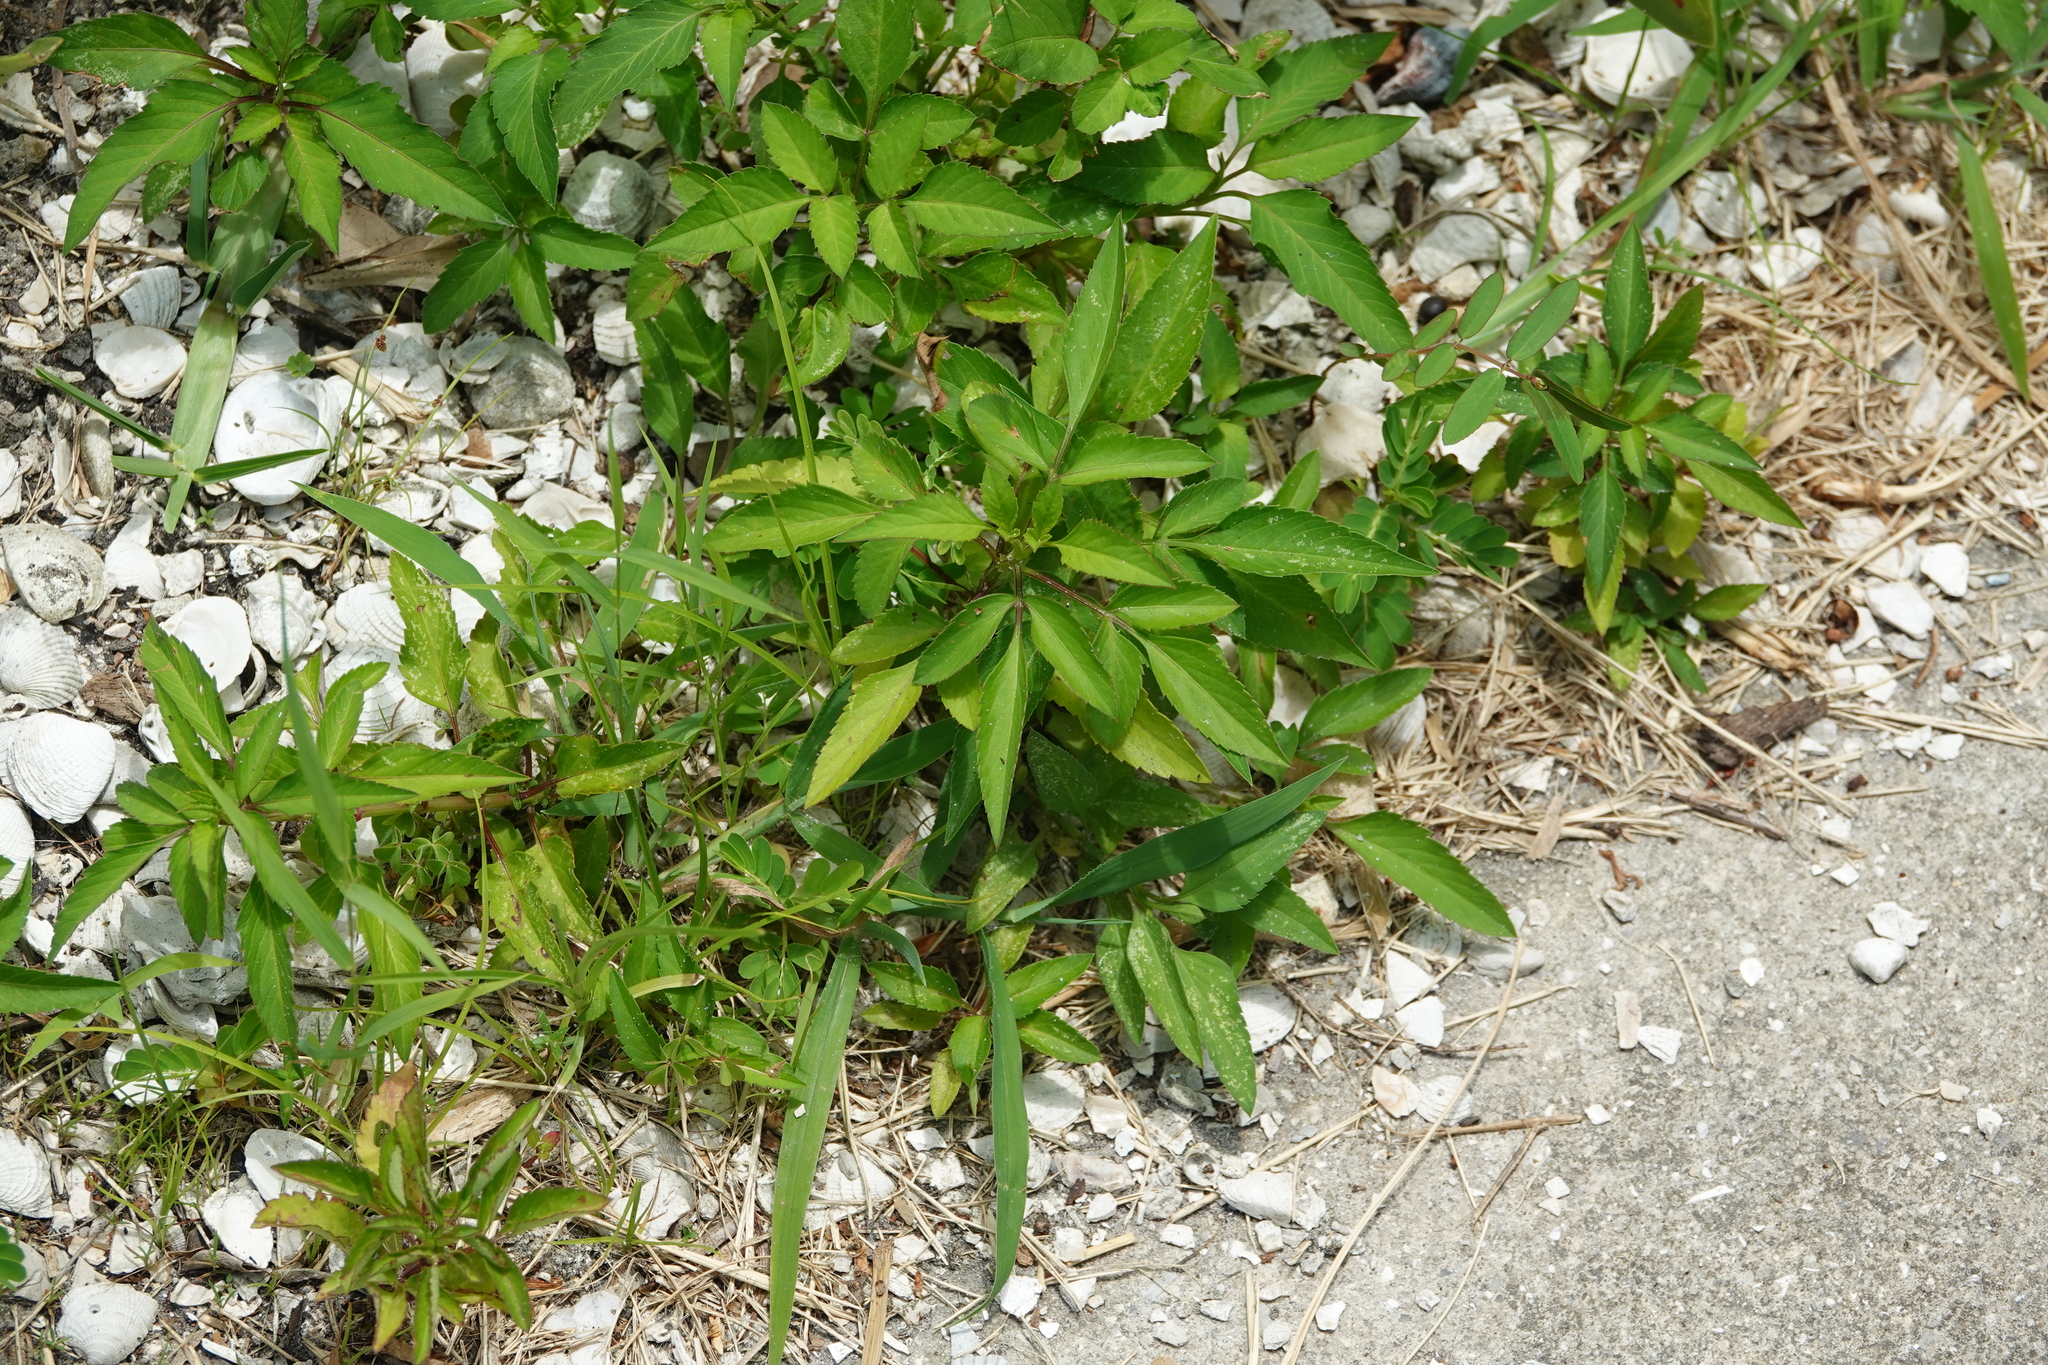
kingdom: Plantae
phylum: Tracheophyta
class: Magnoliopsida
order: Asterales
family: Asteraceae
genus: Bidens
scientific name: Bidens alba
